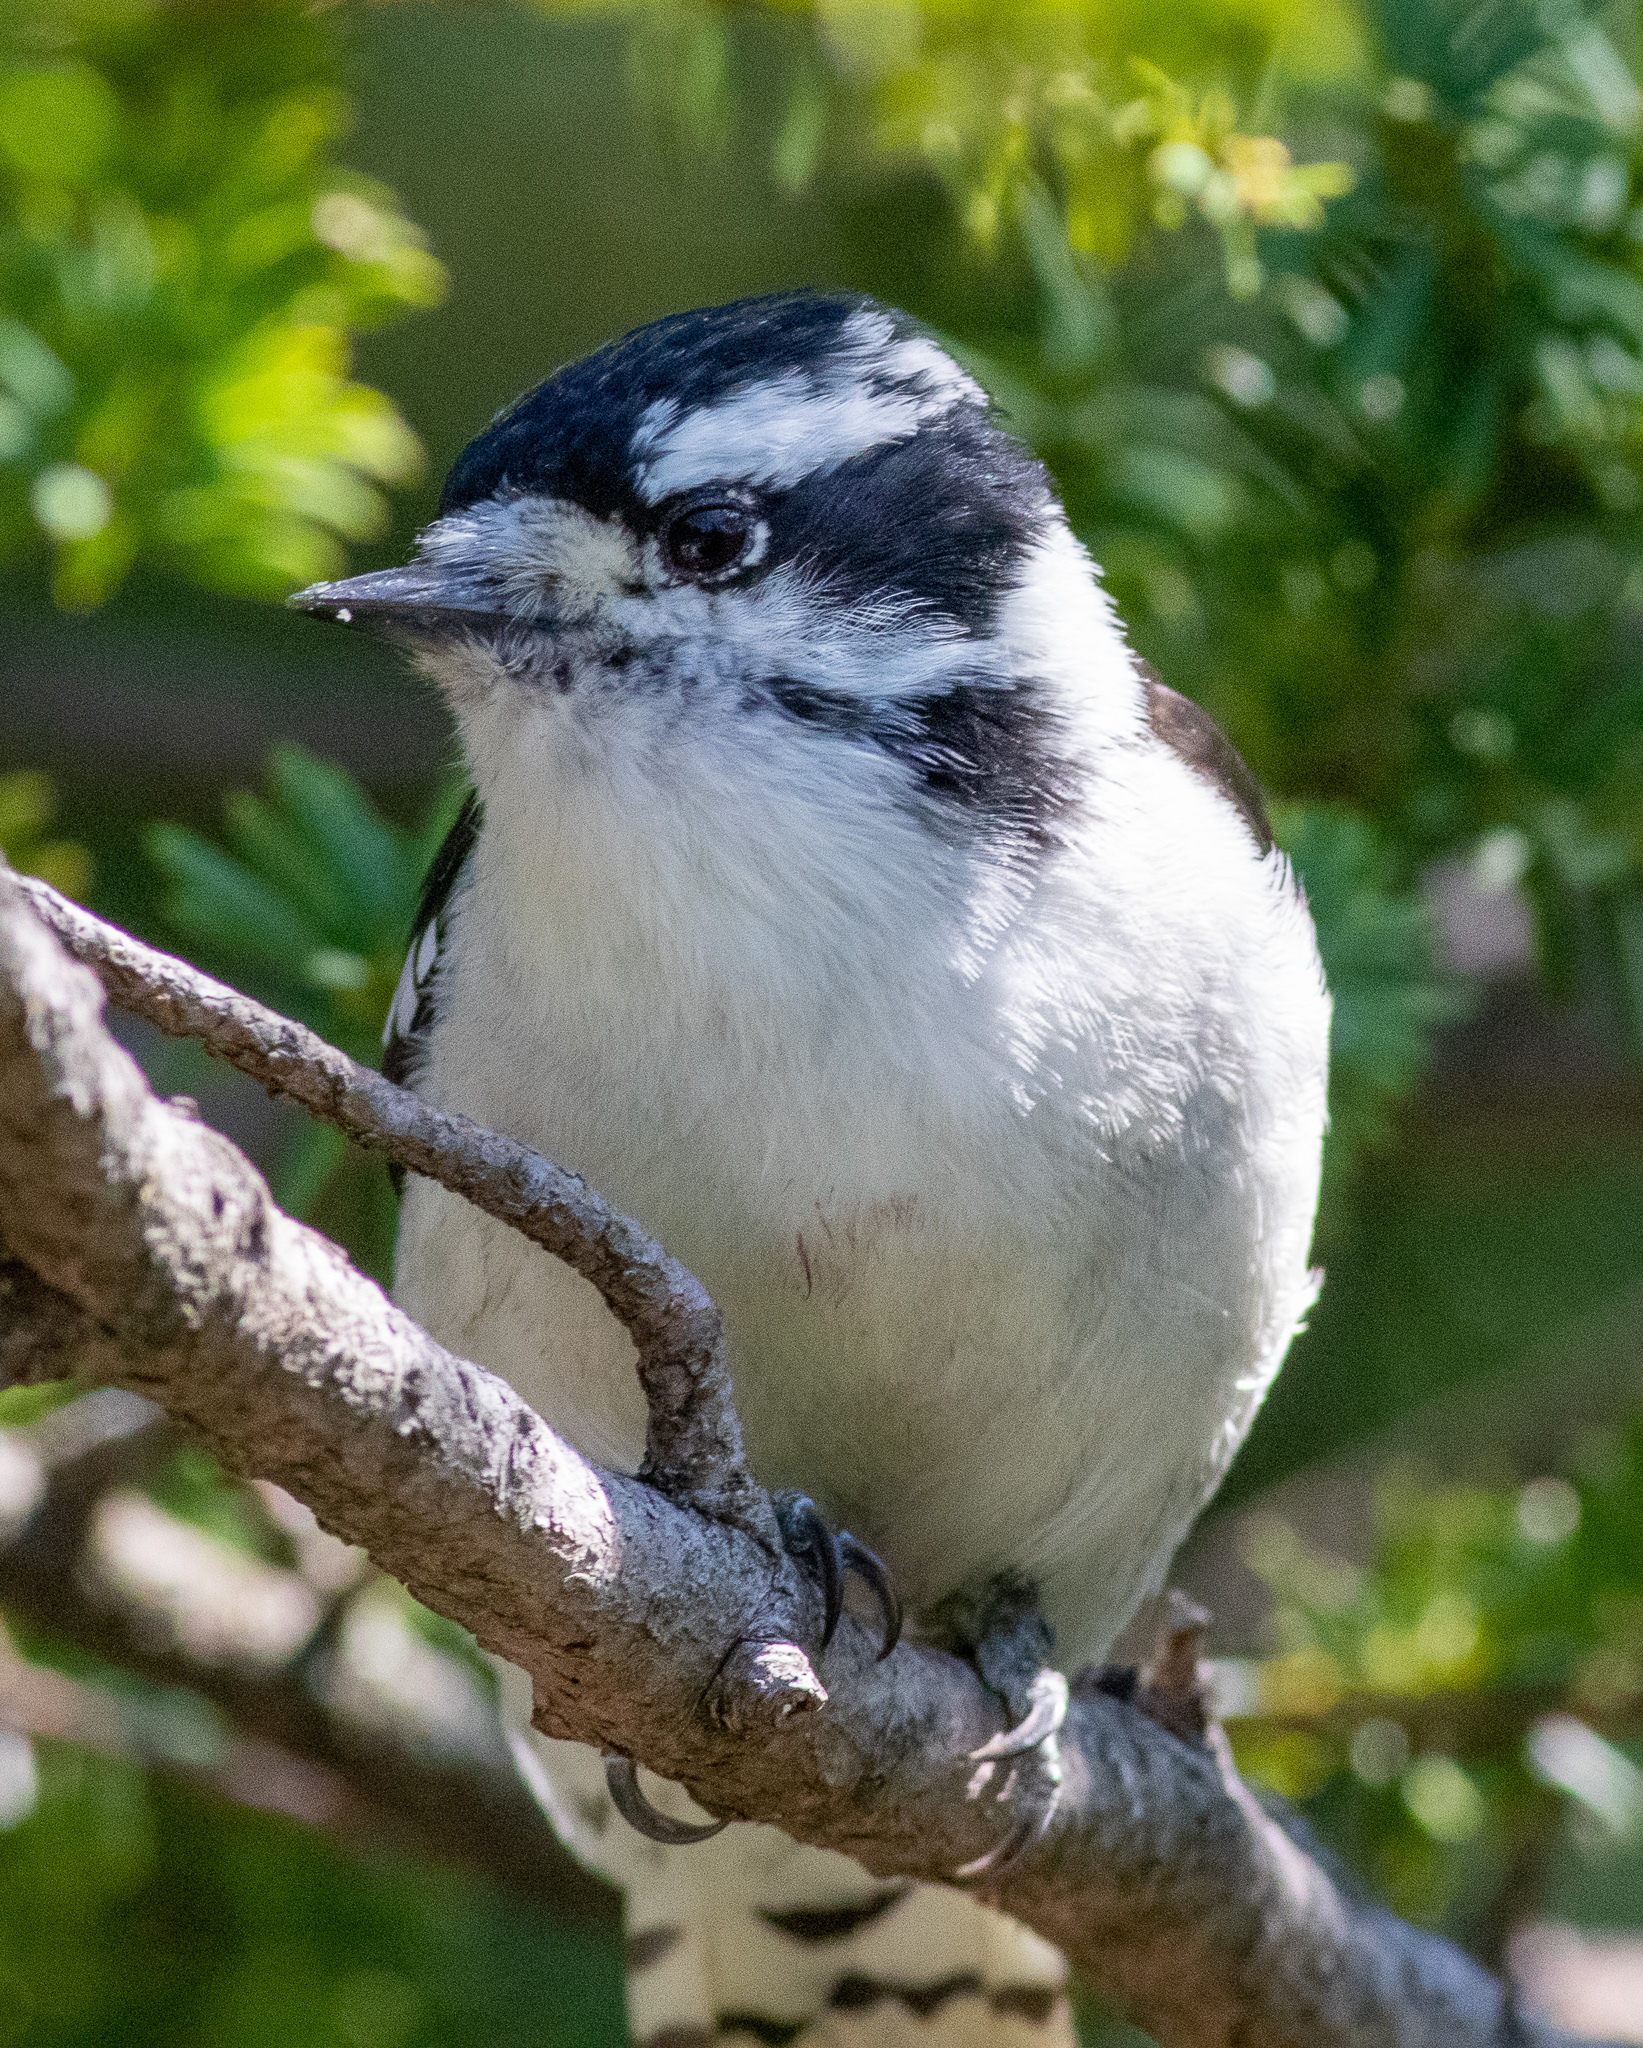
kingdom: Animalia
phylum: Chordata
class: Aves
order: Piciformes
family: Picidae
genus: Dryobates
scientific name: Dryobates pubescens
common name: Downy woodpecker
